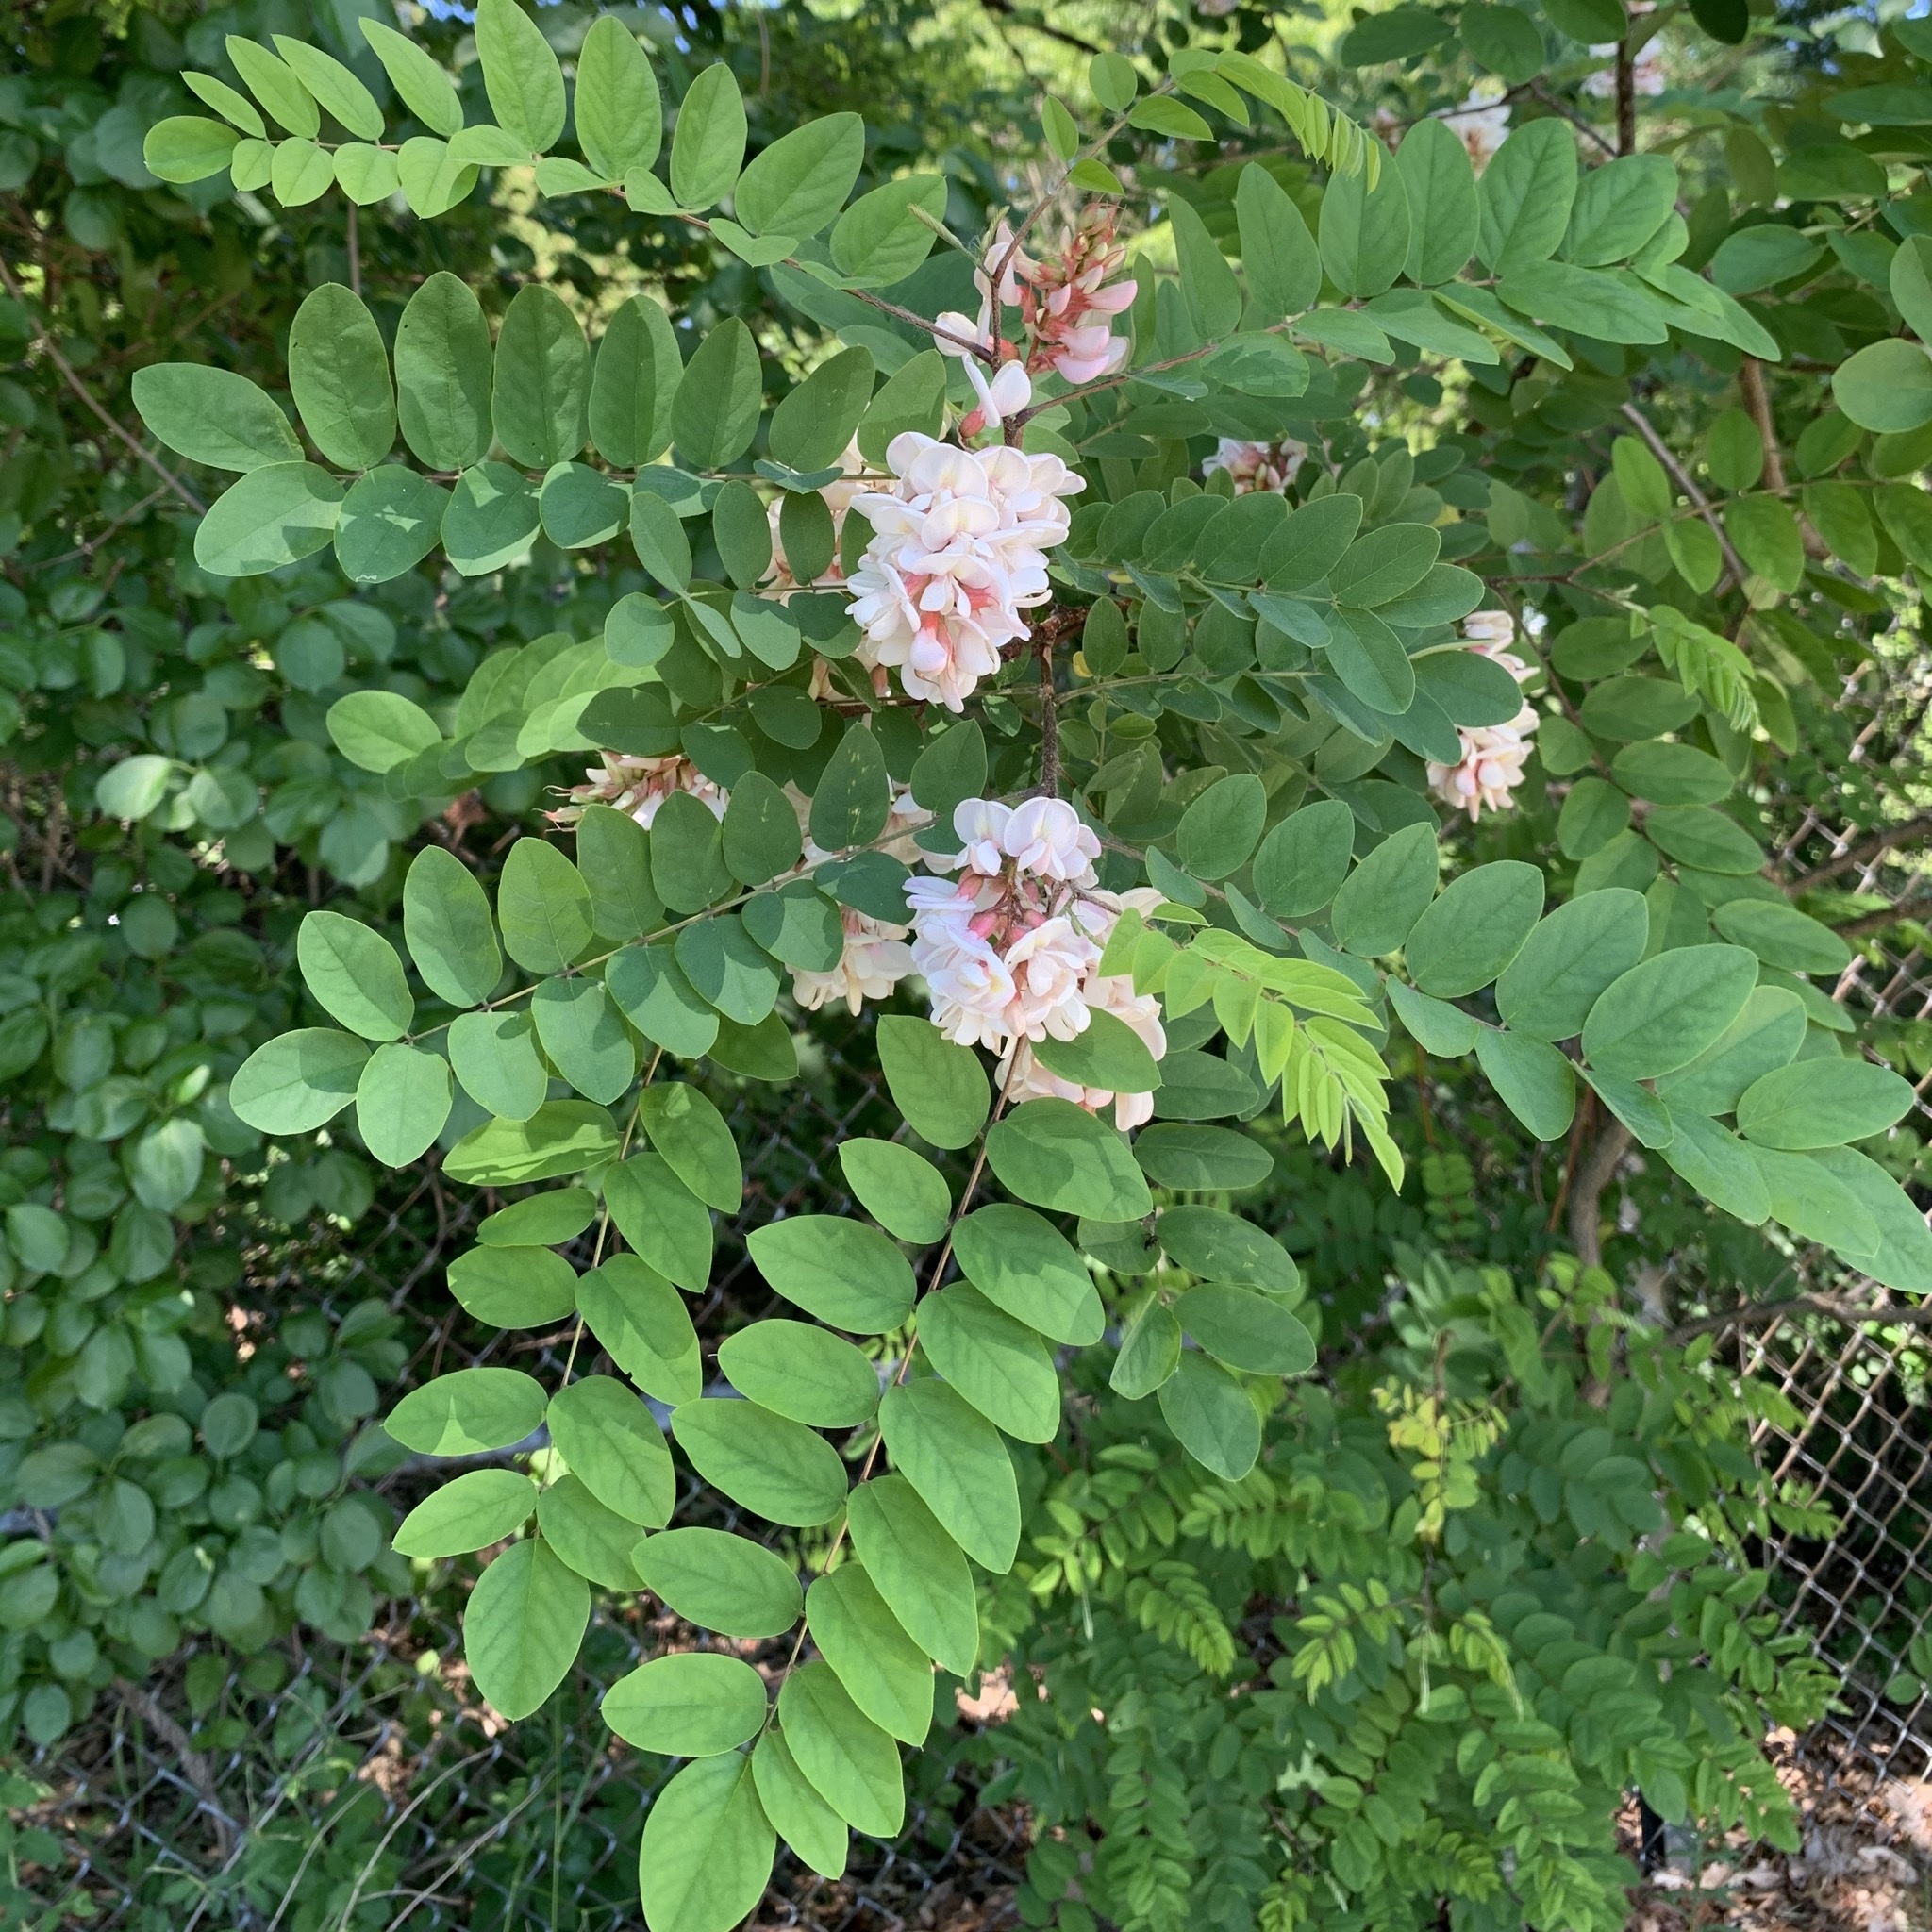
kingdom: Plantae
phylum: Tracheophyta
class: Magnoliopsida
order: Fabales
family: Fabaceae
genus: Robinia
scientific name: Robinia pseudoacacia
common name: Black locust
